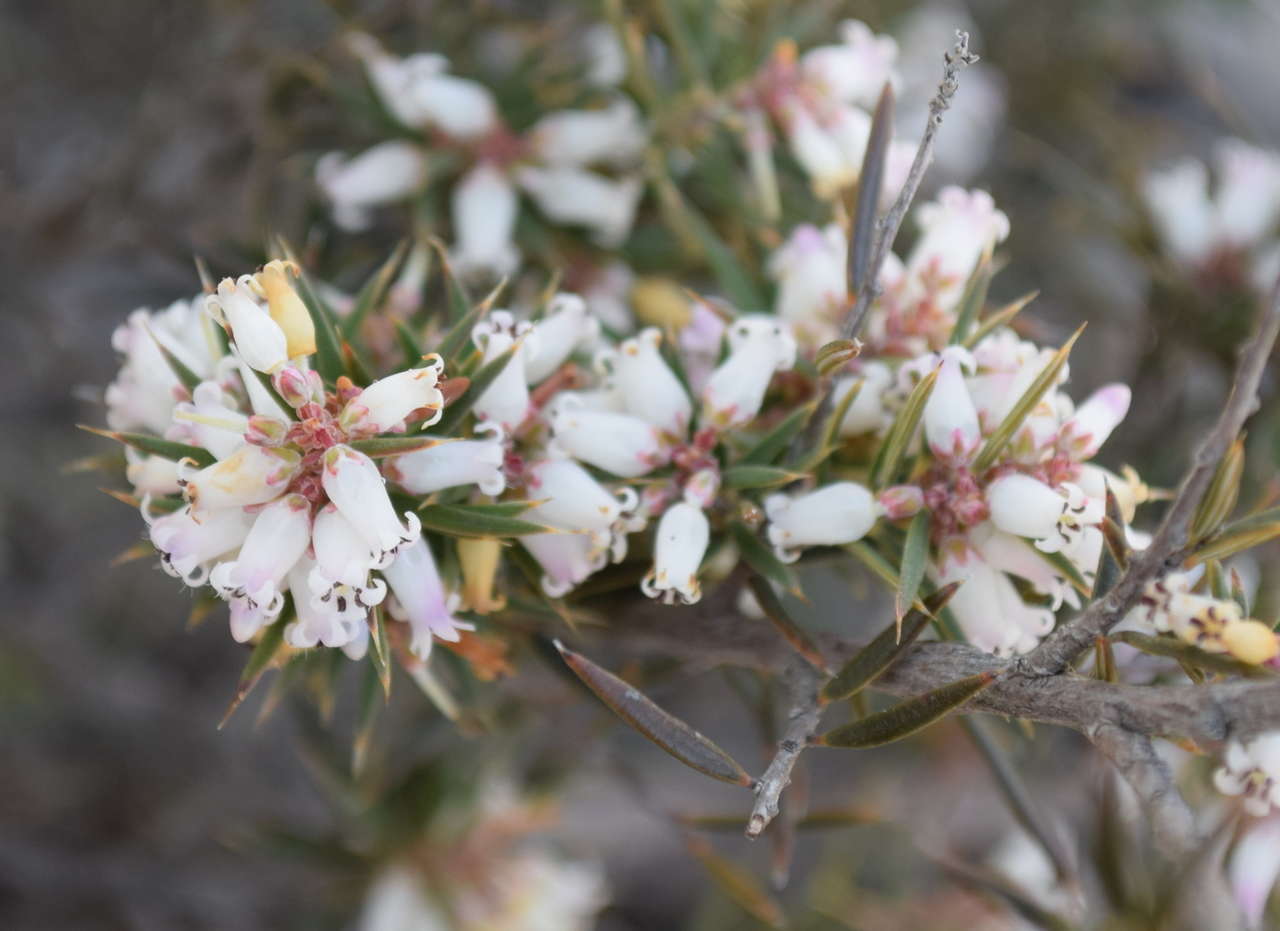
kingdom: Plantae
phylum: Tracheophyta
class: Magnoliopsida
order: Ericales
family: Ericaceae
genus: Lissanthe
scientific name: Lissanthe strigosa
